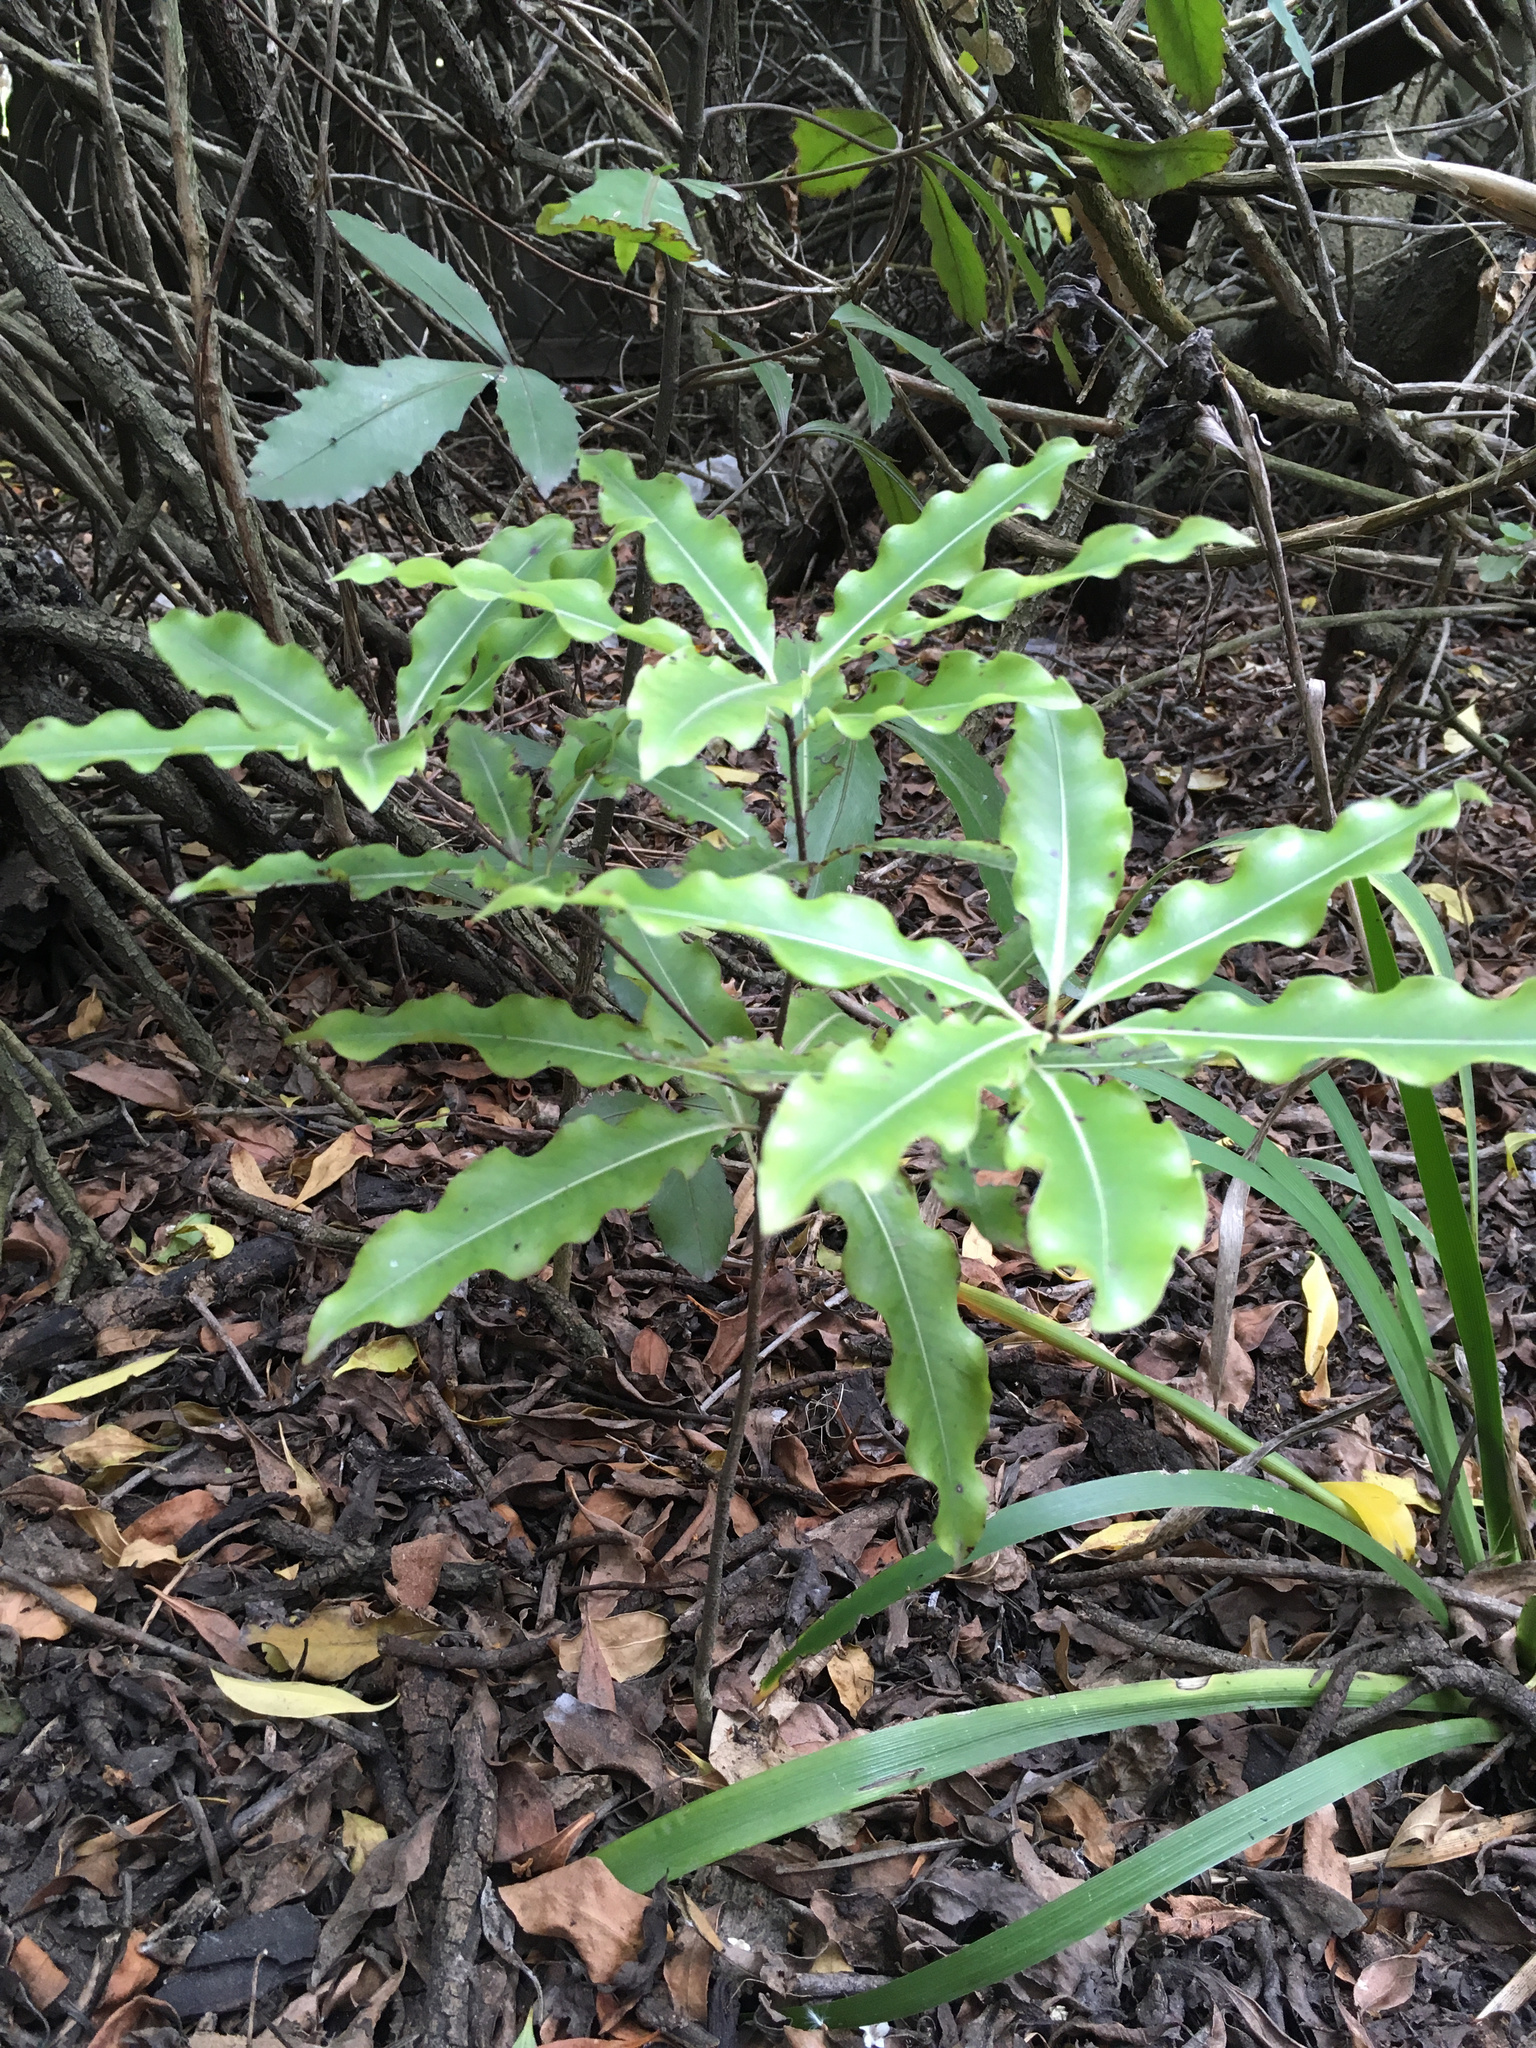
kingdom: Plantae
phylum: Tracheophyta
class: Magnoliopsida
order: Apiales
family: Pittosporaceae
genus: Pittosporum
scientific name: Pittosporum eugenioides
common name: Lemonwood
